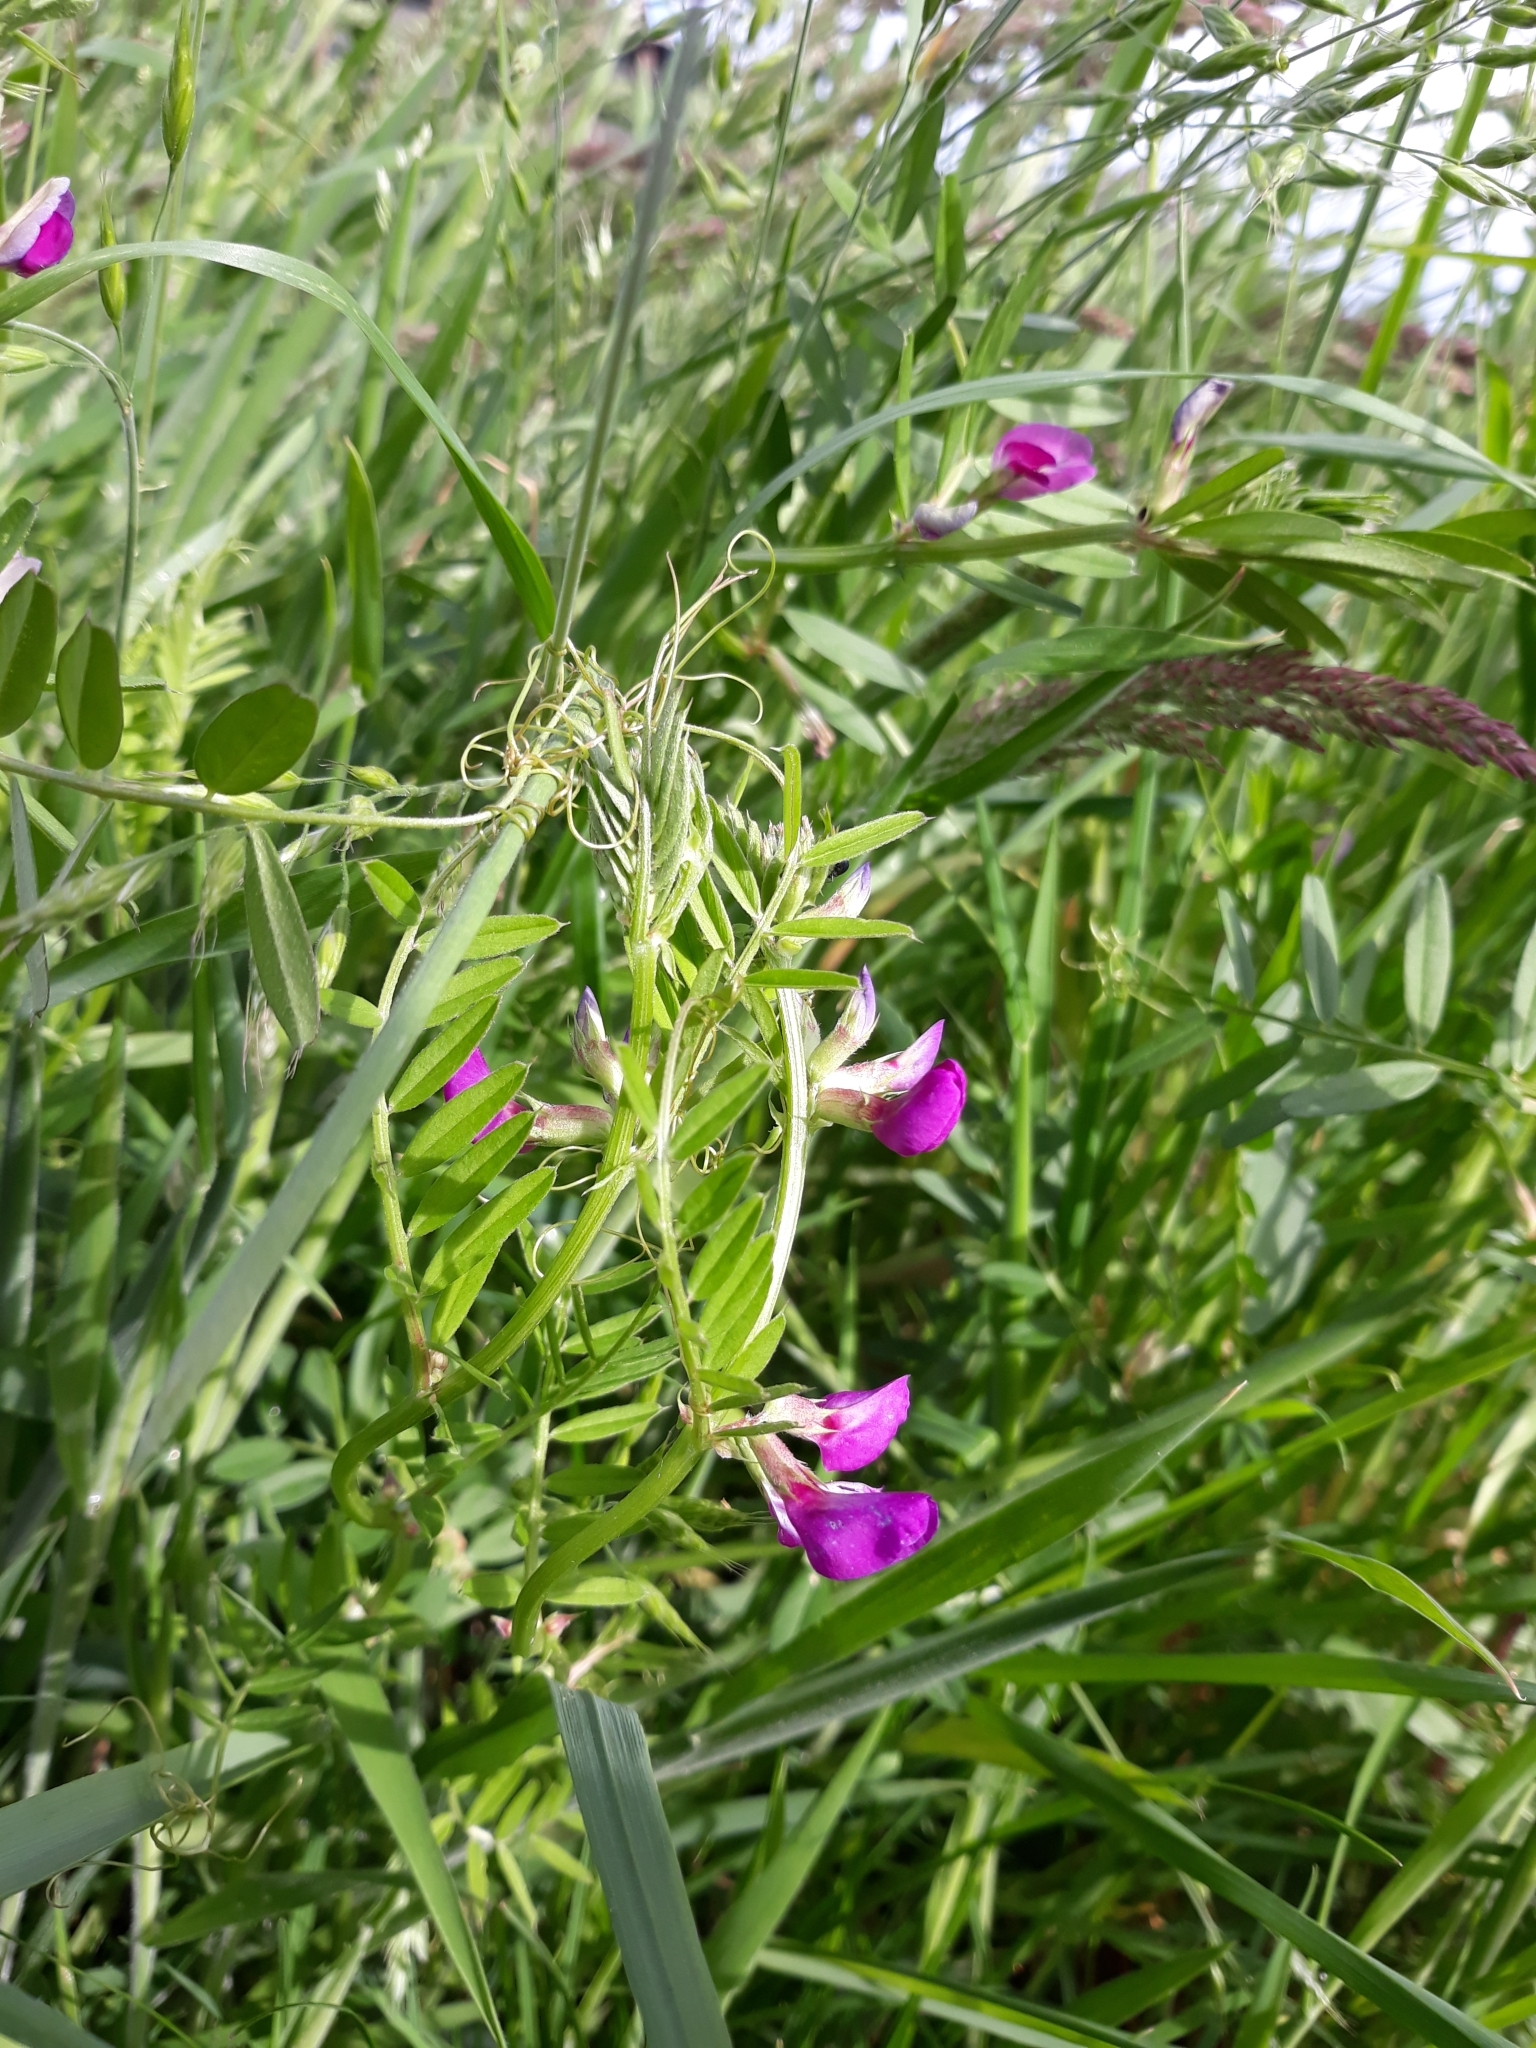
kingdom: Plantae
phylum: Tracheophyta
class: Magnoliopsida
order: Fabales
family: Fabaceae
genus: Vicia
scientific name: Vicia sativa
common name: Garden vetch
